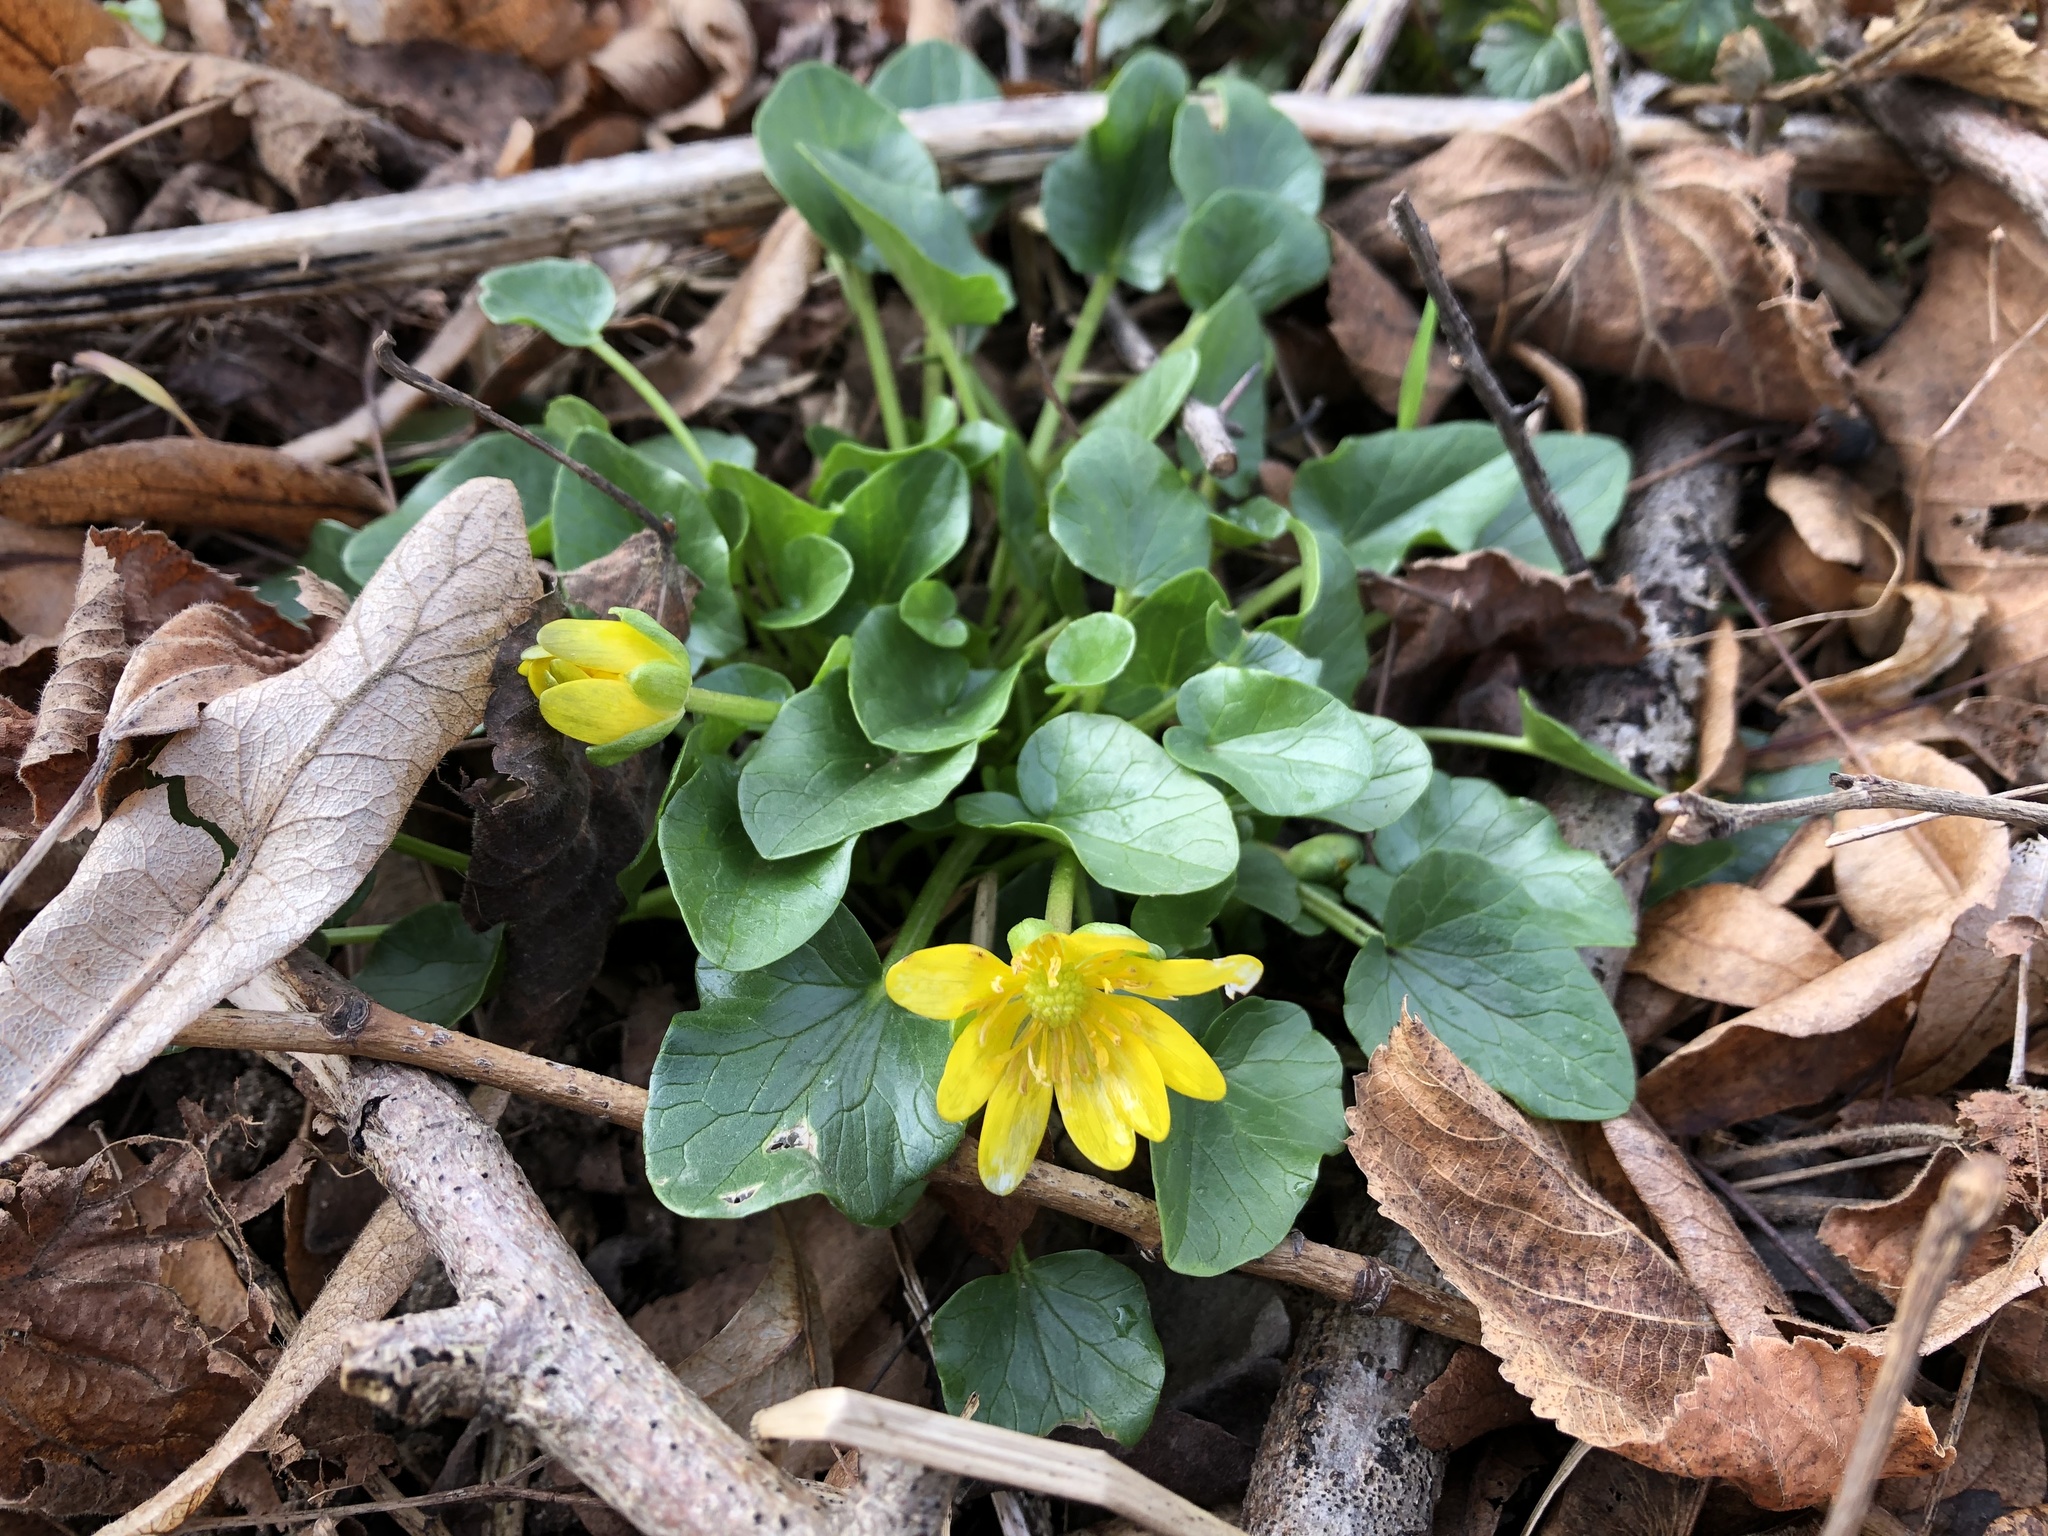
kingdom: Plantae
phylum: Tracheophyta
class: Magnoliopsida
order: Ranunculales
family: Ranunculaceae
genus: Ficaria
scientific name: Ficaria verna
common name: Lesser celandine
